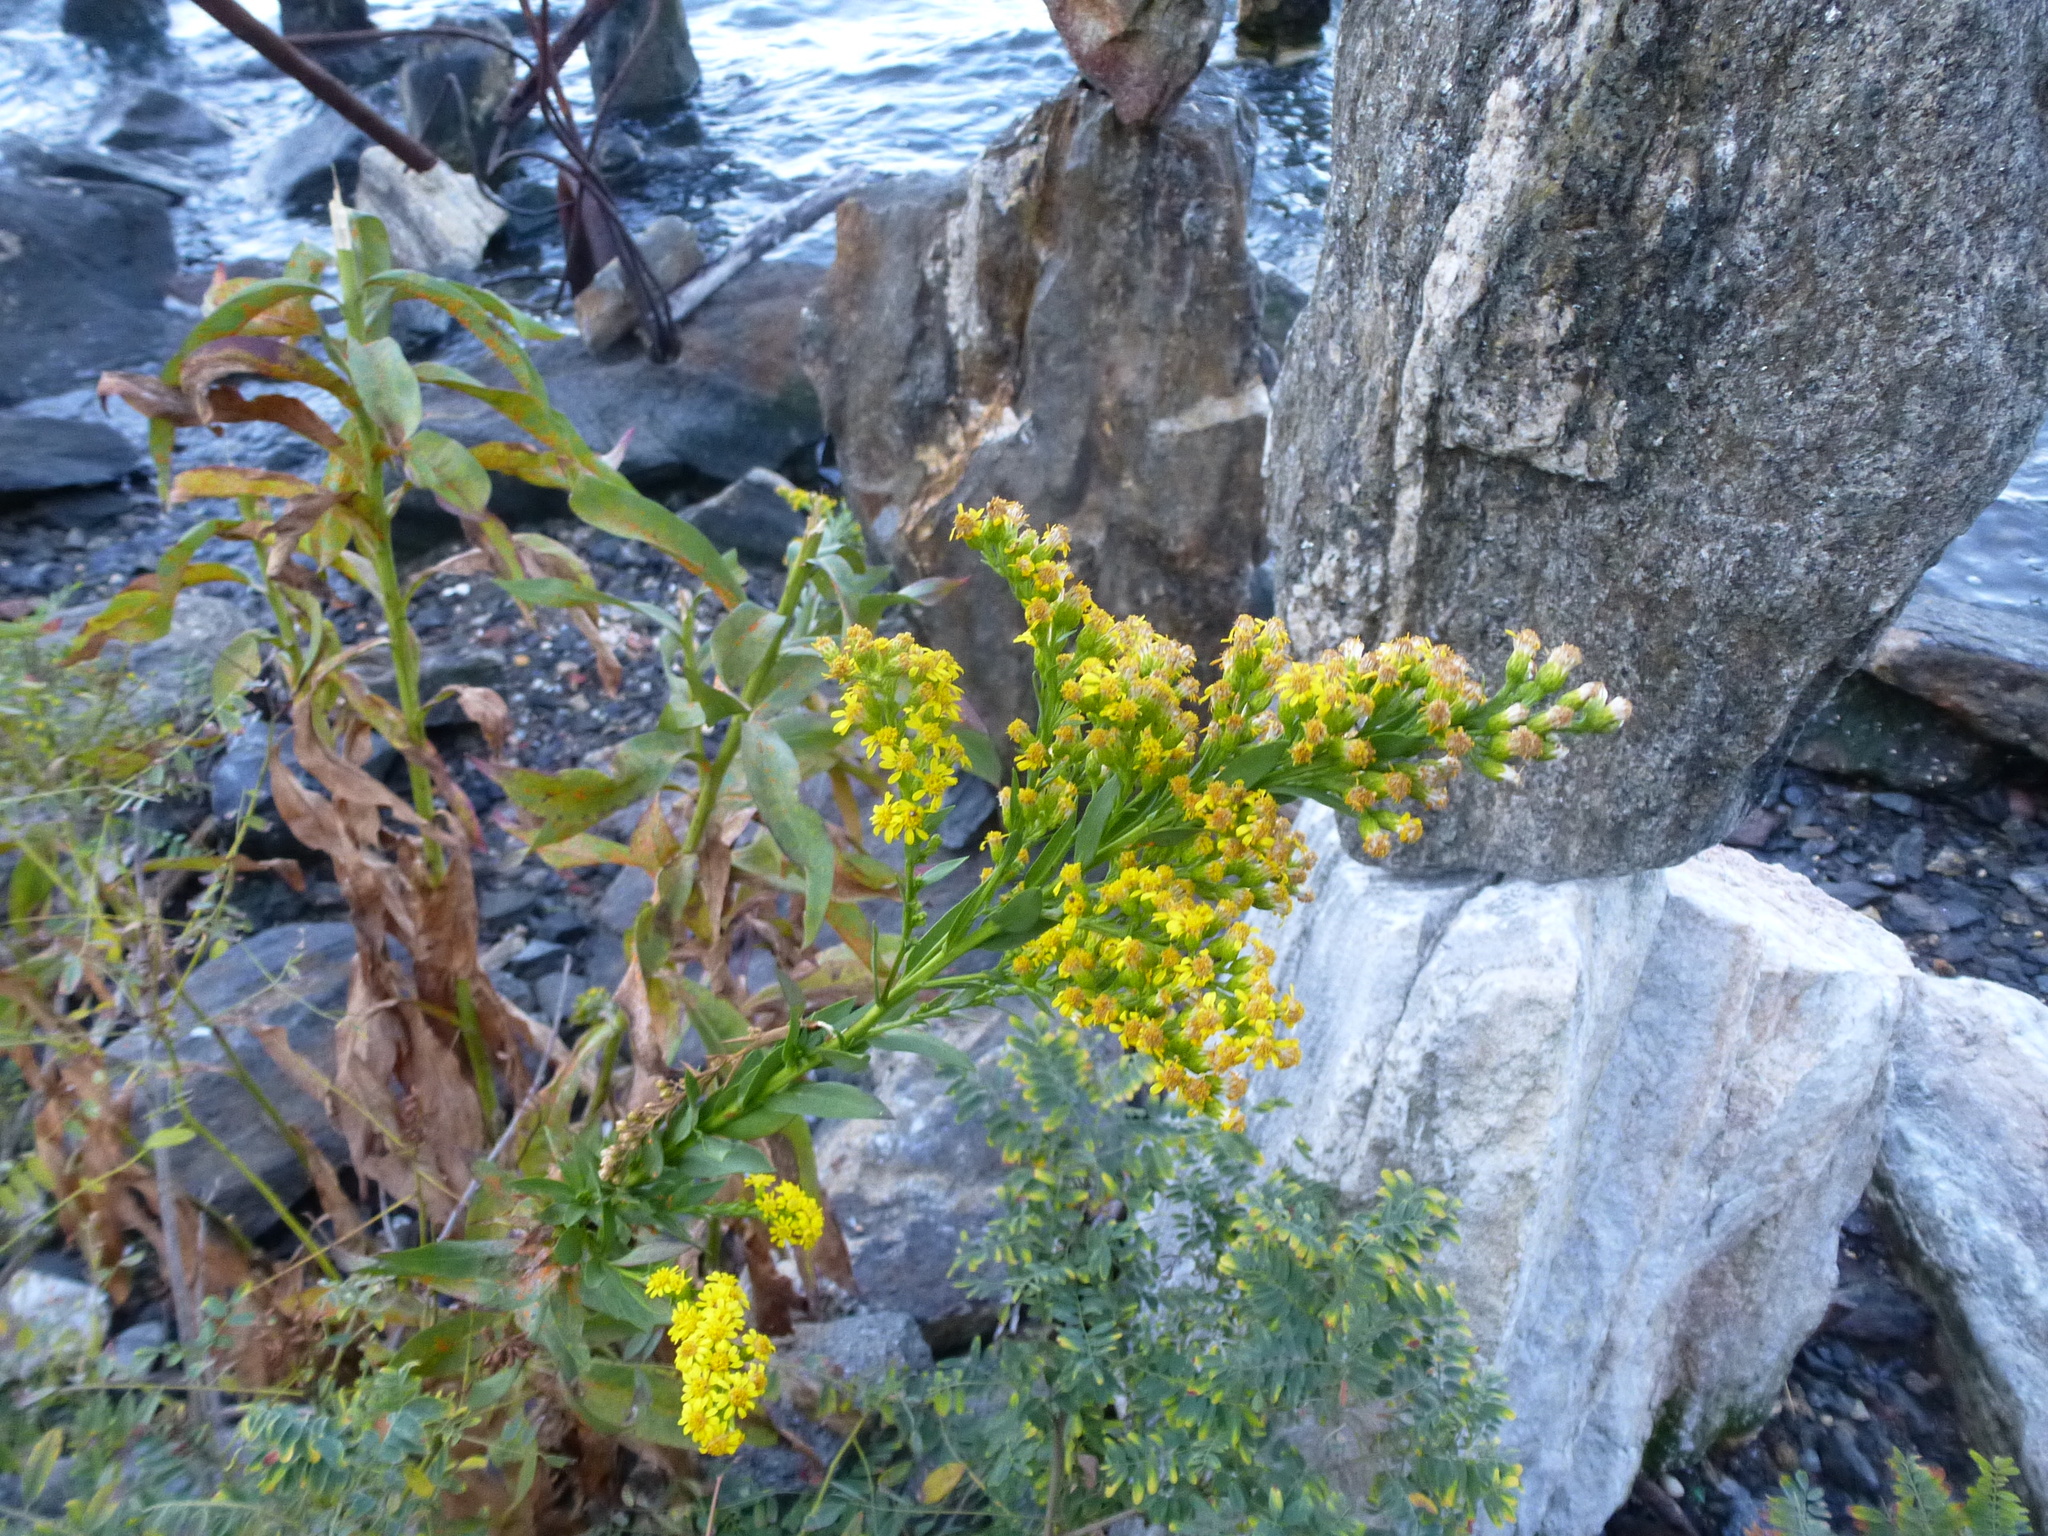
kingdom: Plantae
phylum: Tracheophyta
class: Magnoliopsida
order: Asterales
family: Asteraceae
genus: Solidago
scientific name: Solidago sempervirens
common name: Salt-marsh goldenrod
